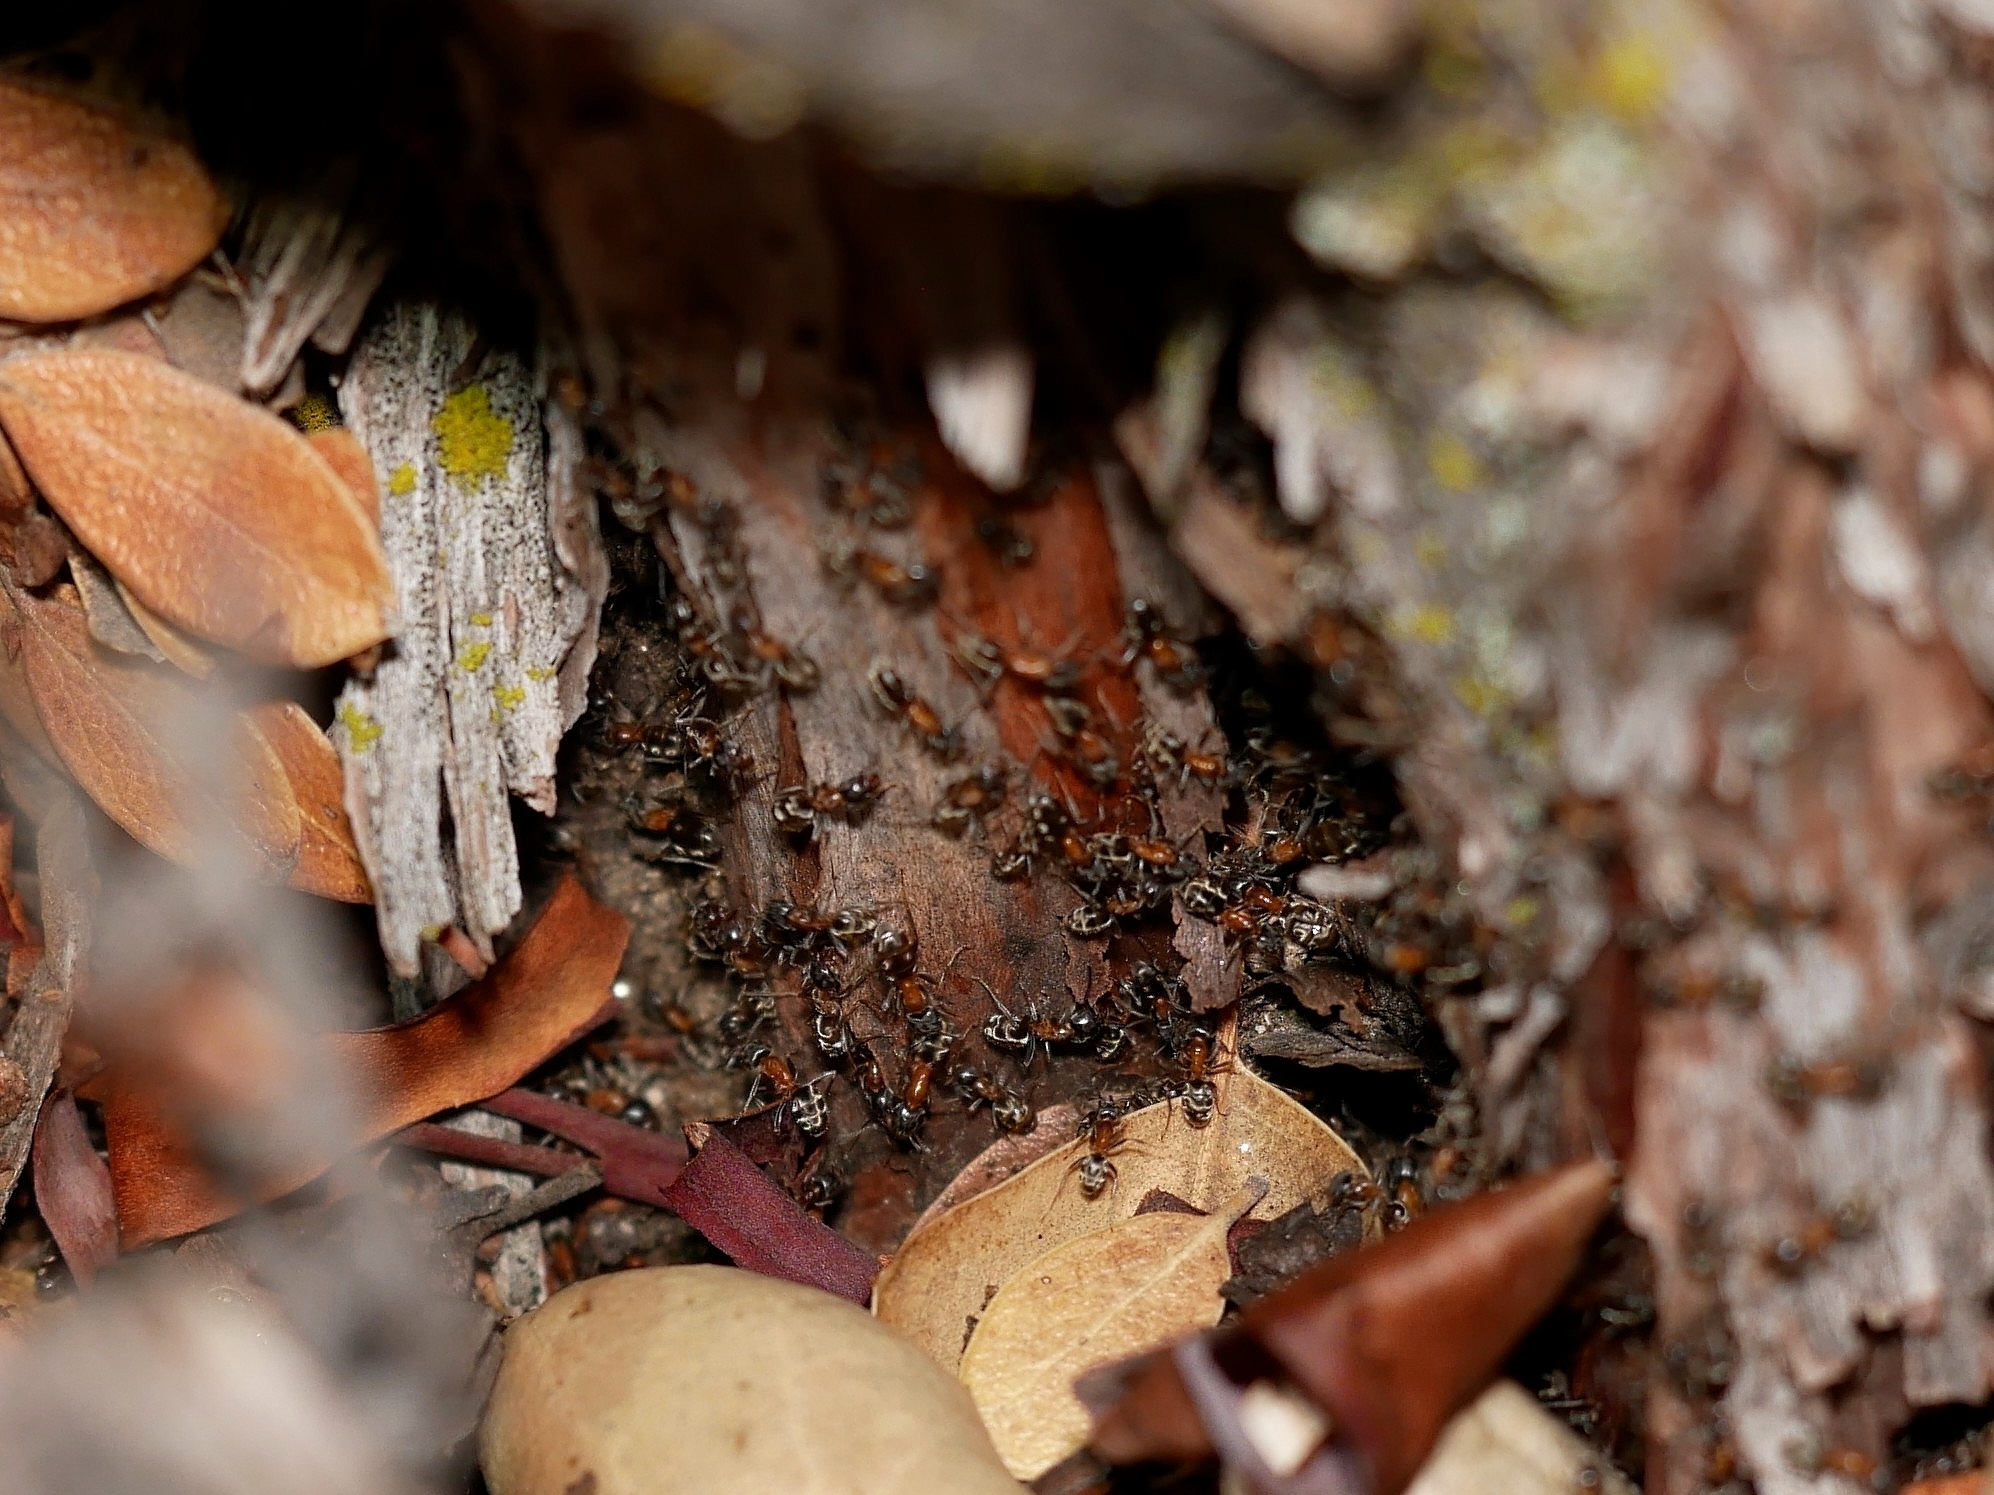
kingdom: Animalia
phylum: Arthropoda
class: Insecta
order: Hymenoptera
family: Formicidae
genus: Liometopum
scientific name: Liometopum occidentale
